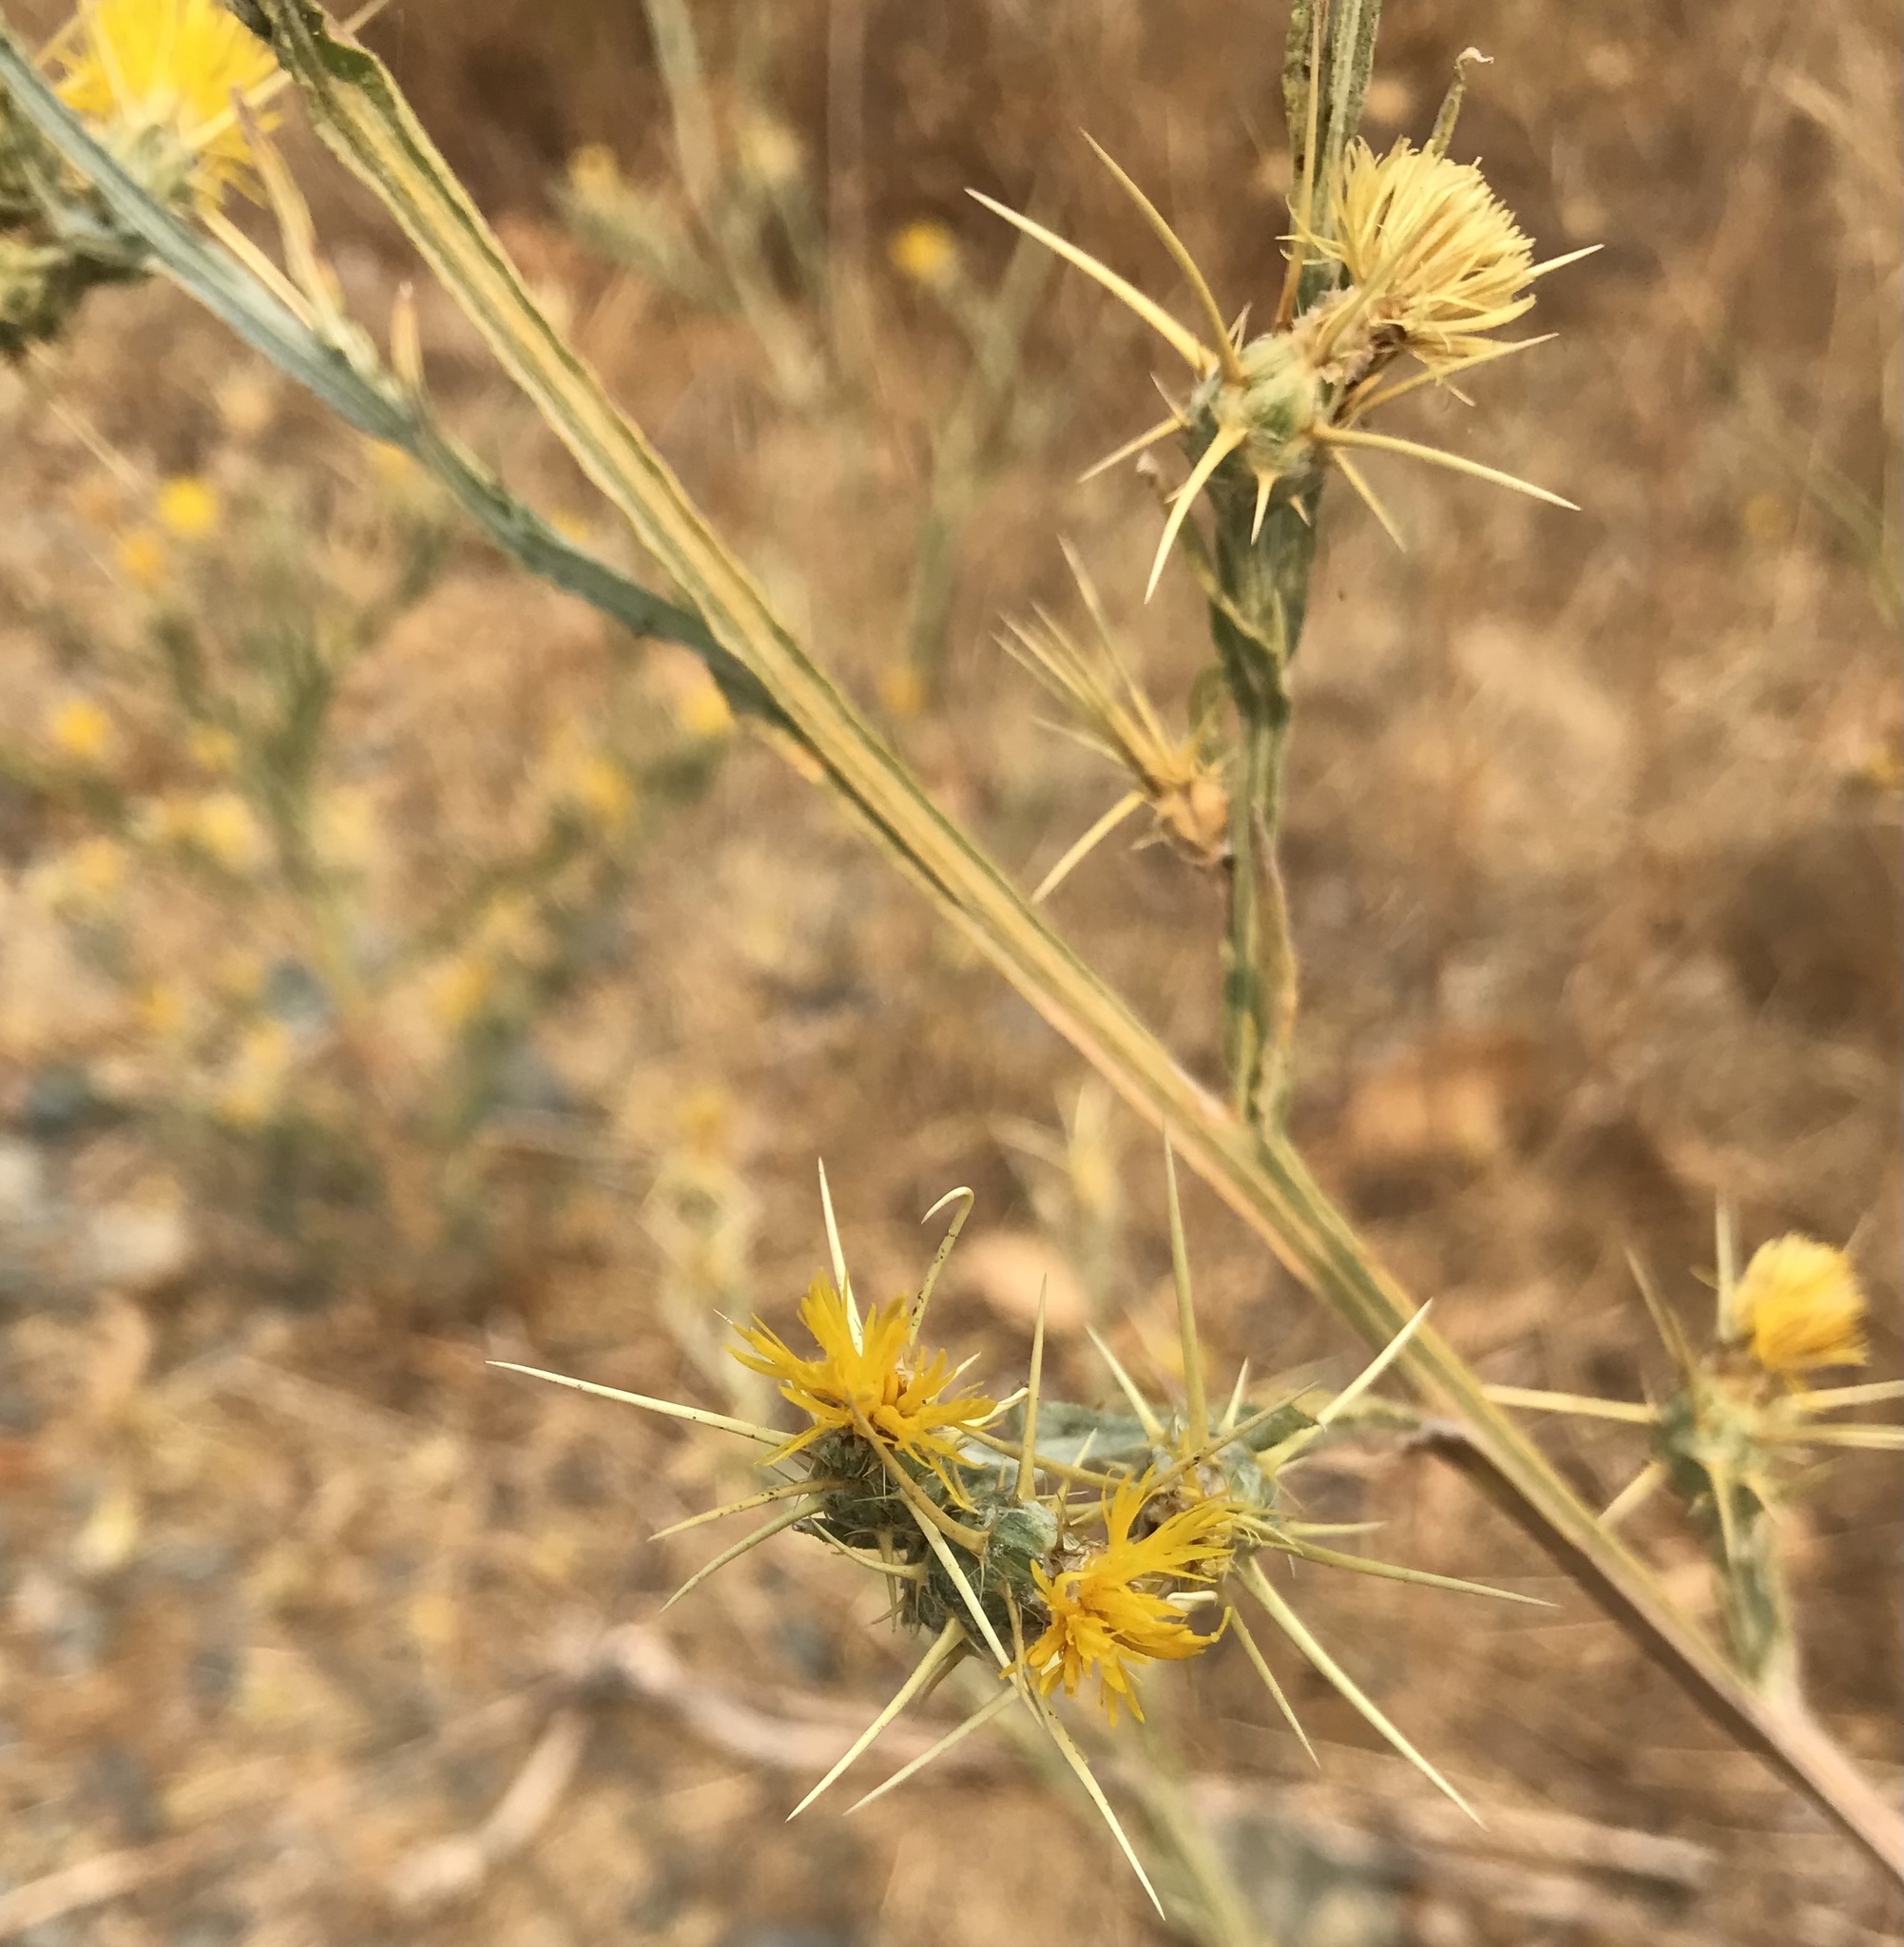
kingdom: Plantae
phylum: Tracheophyta
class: Magnoliopsida
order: Asterales
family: Asteraceae
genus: Centaurea
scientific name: Centaurea solstitialis
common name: Yellow star-thistle
